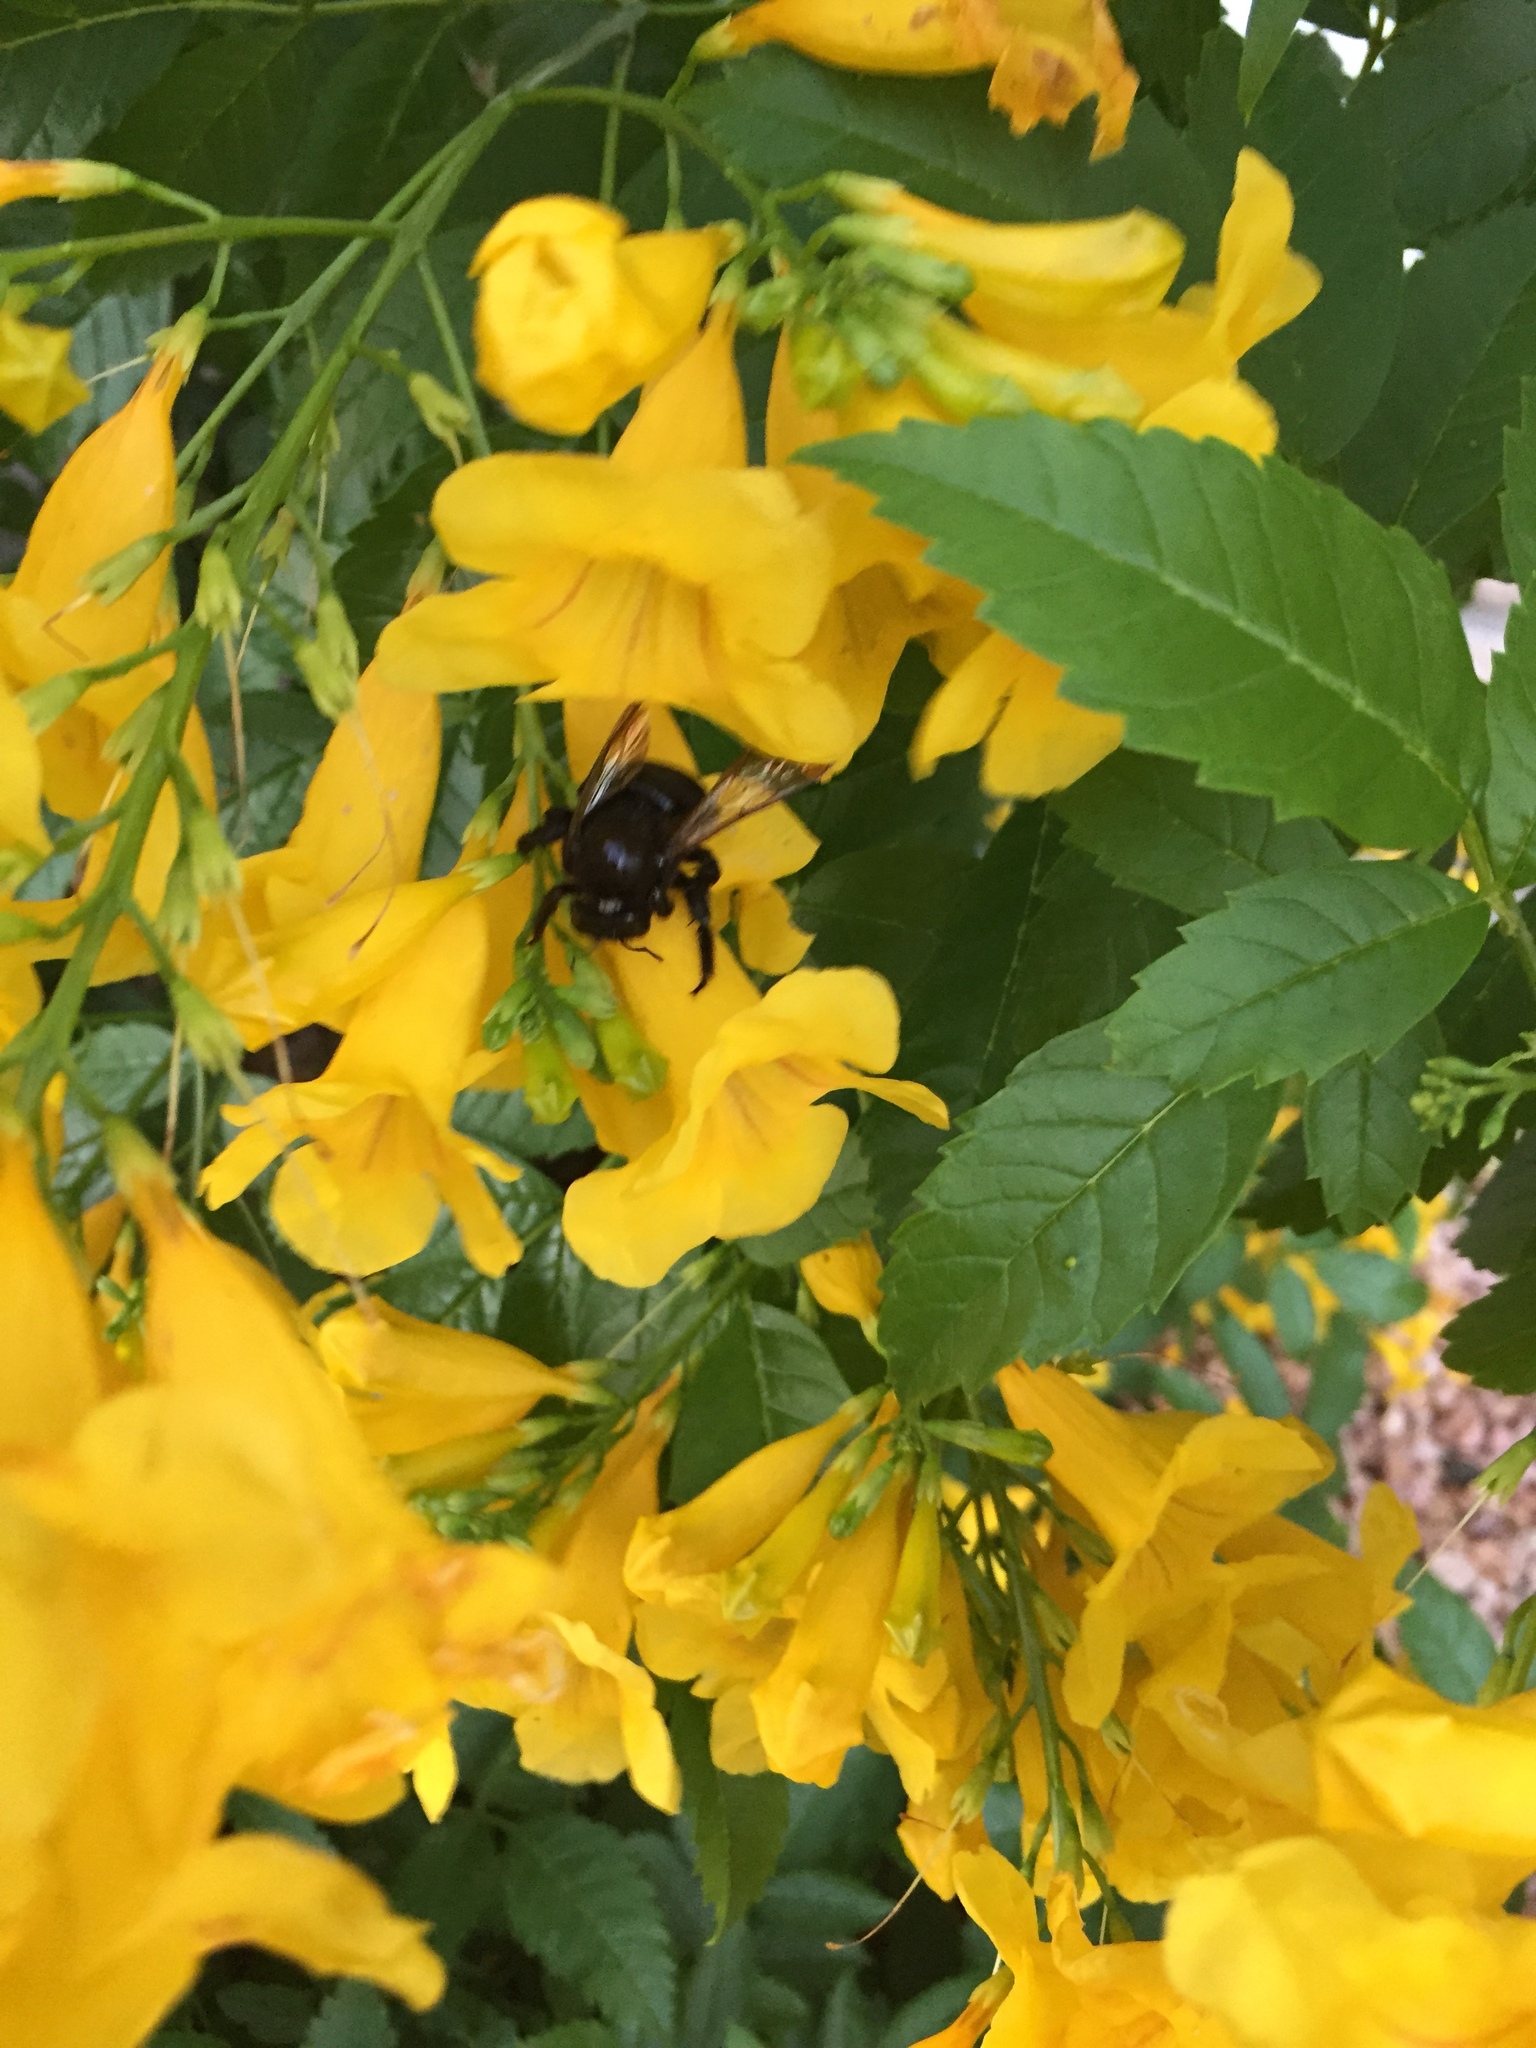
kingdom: Animalia
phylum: Arthropoda
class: Insecta
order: Hymenoptera
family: Apidae
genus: Xylocopa
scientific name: Xylocopa sonorina
